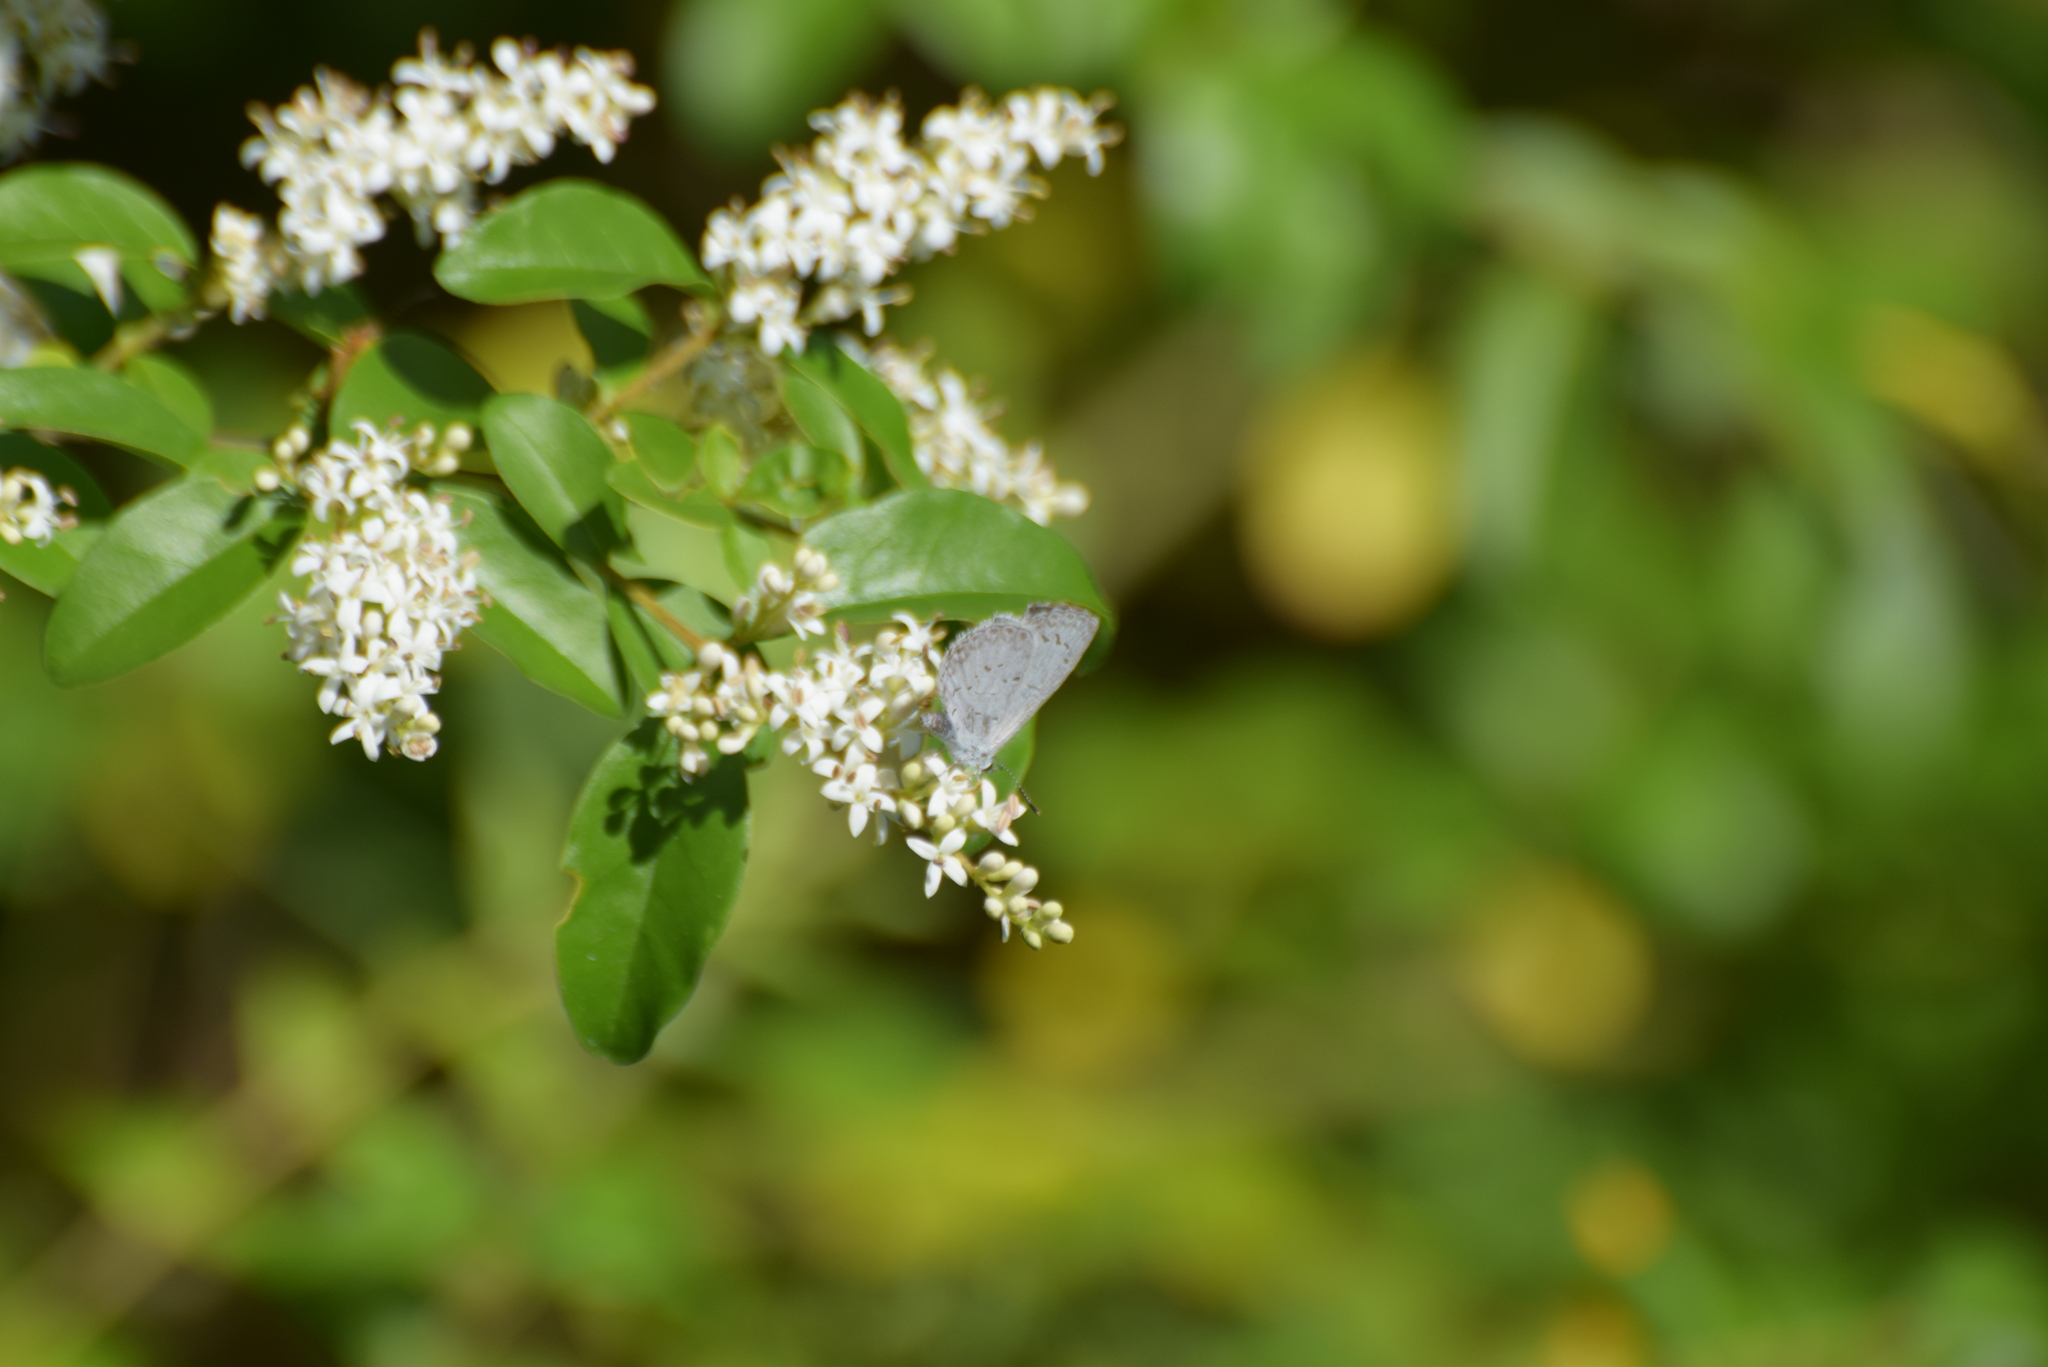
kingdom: Animalia
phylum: Arthropoda
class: Insecta
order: Lepidoptera
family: Lycaenidae
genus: Cyaniris
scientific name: Cyaniris neglecta
